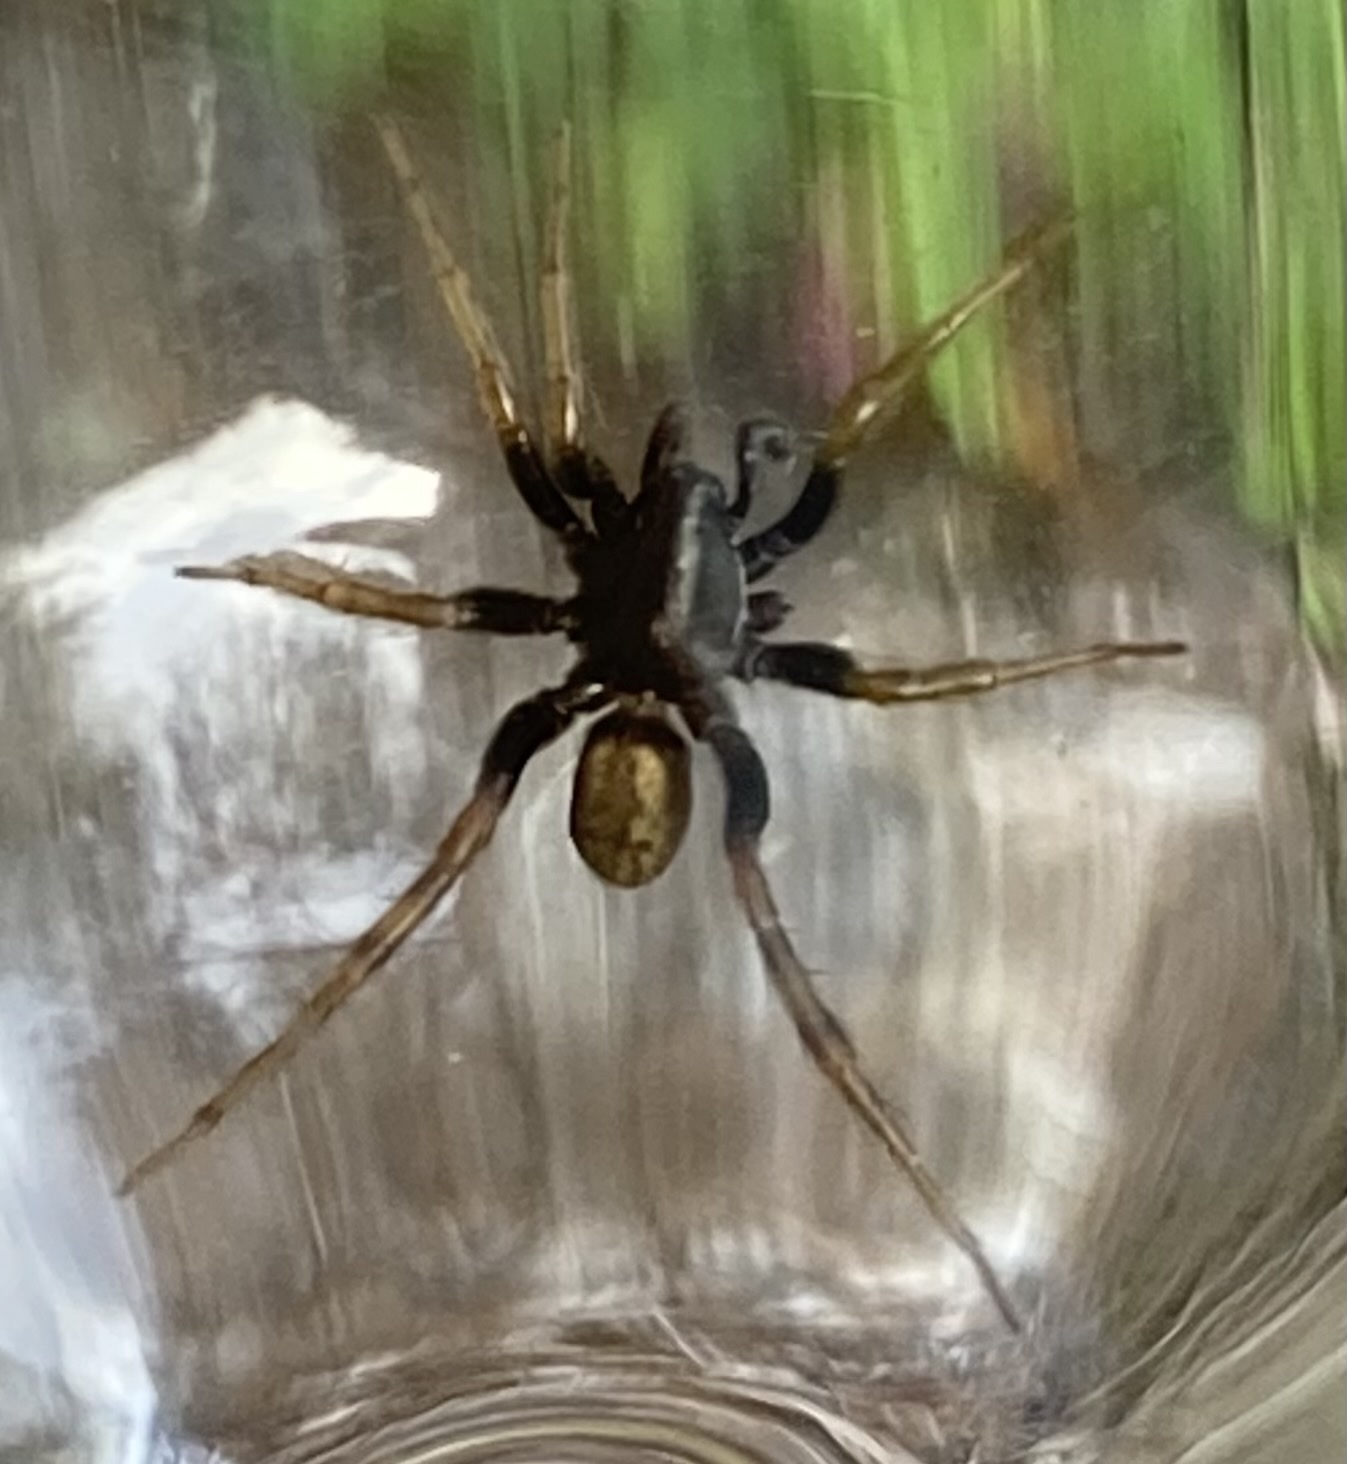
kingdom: Animalia
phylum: Arthropoda
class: Arachnida
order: Araneae
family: Lycosidae
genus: Allocosa
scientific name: Allocosa funerea
